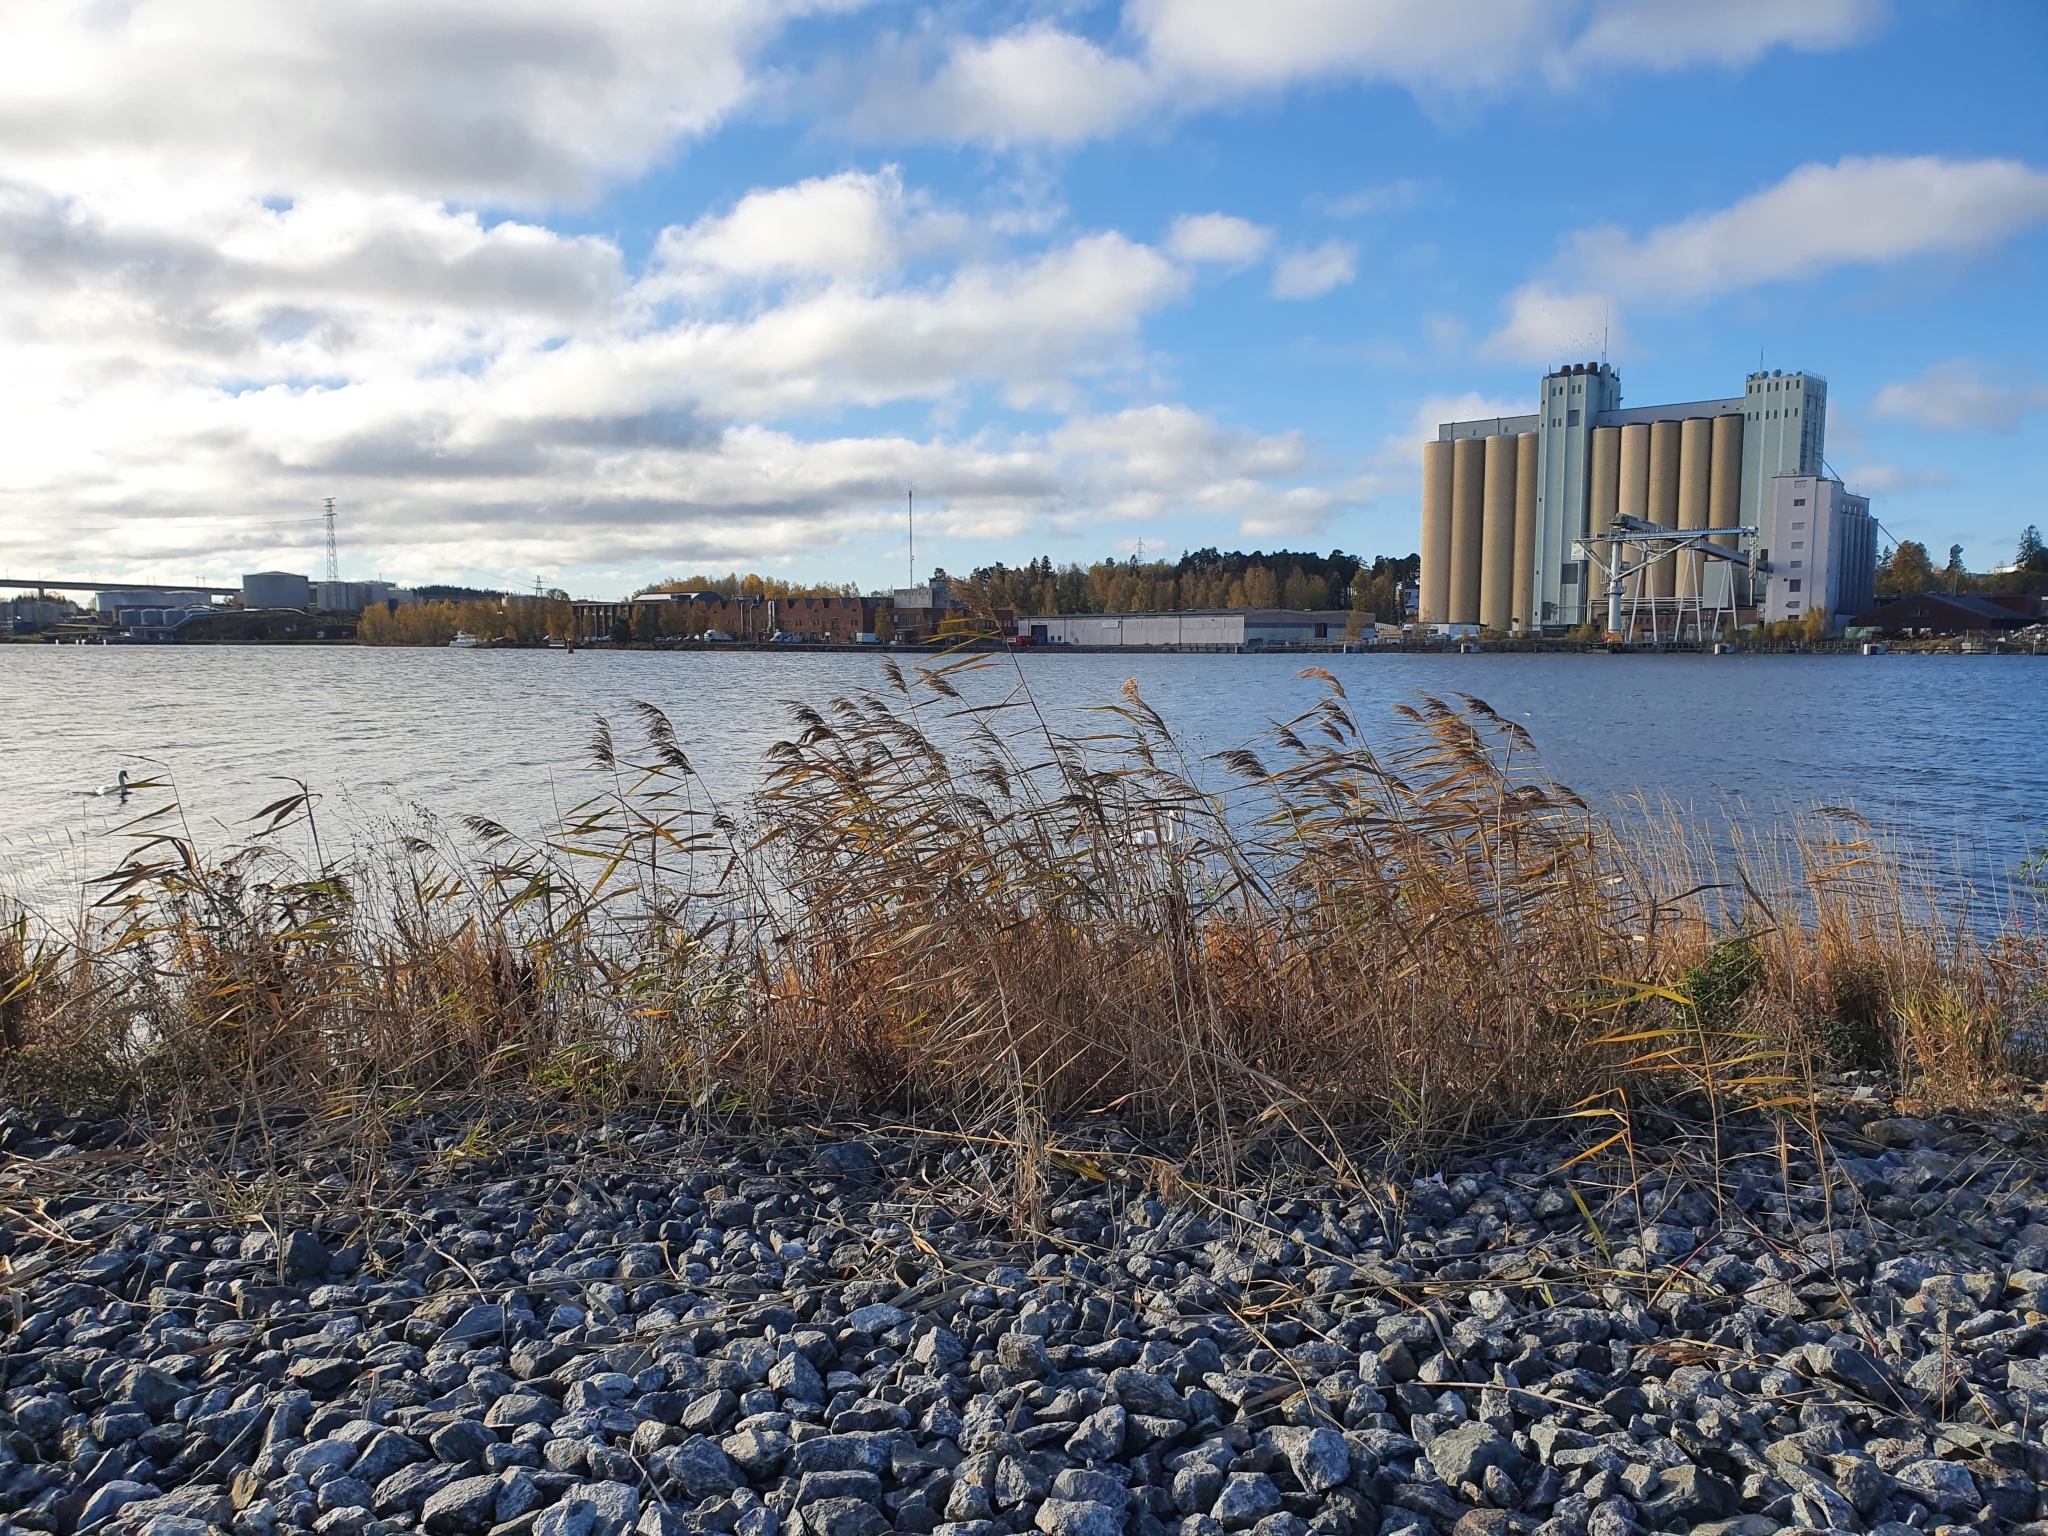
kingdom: Plantae
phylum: Tracheophyta
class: Liliopsida
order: Poales
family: Poaceae
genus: Phragmites
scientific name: Phragmites australis
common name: Common reed
